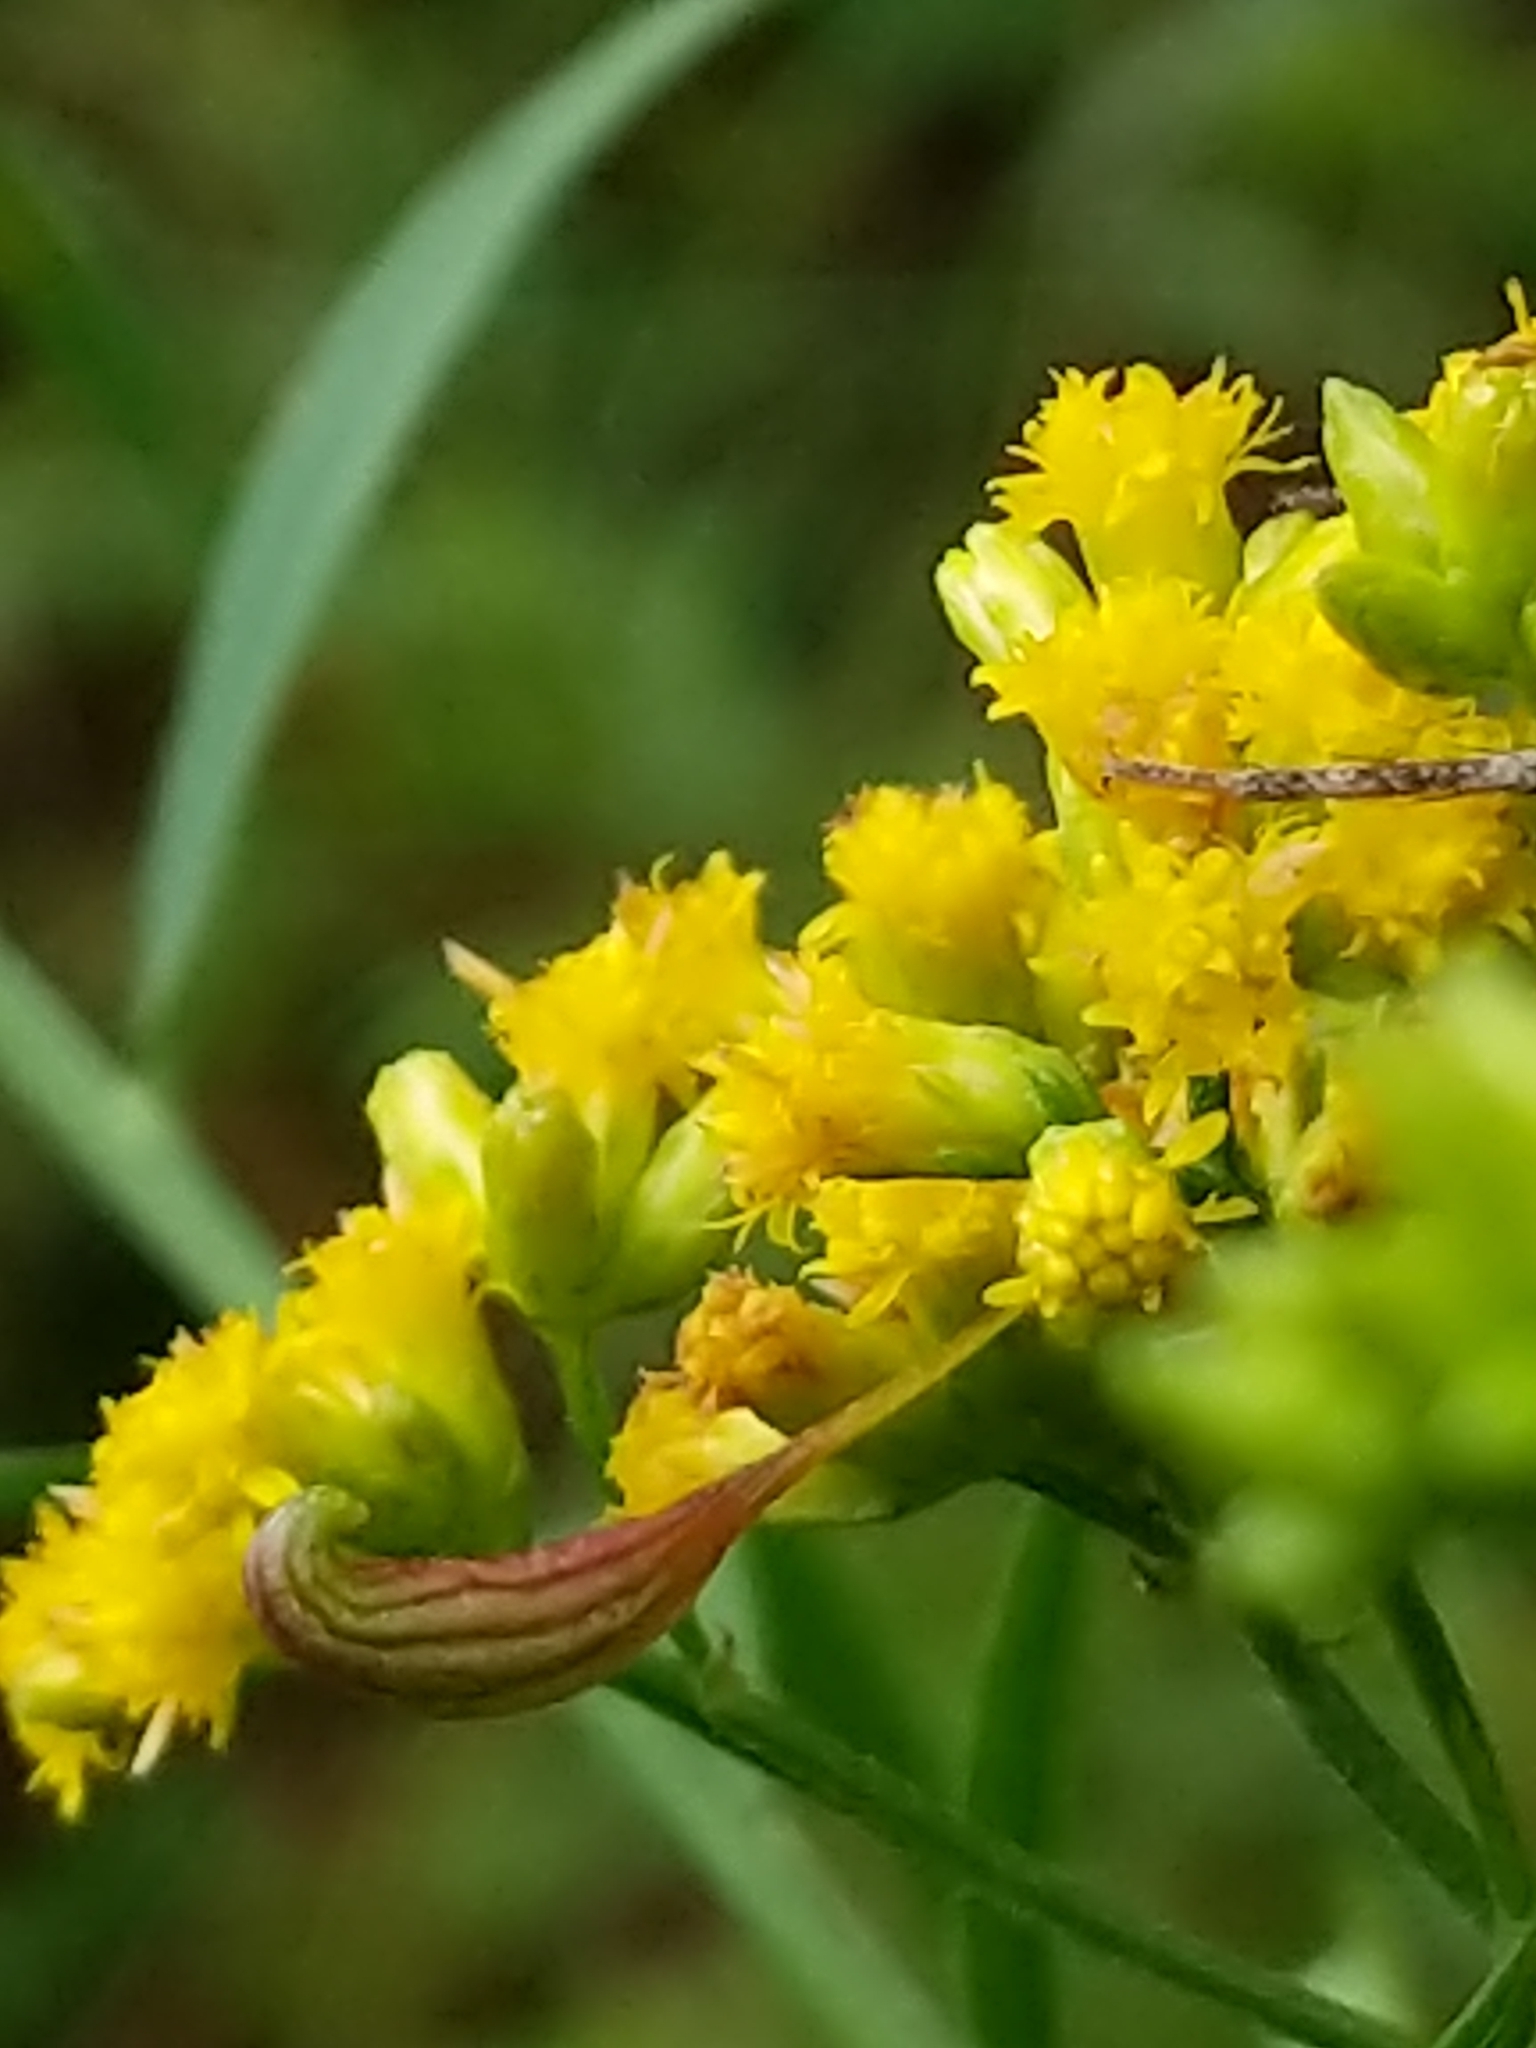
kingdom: Animalia
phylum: Arthropoda
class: Insecta
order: Diptera
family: Cecidomyiidae
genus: Rhopalomyia
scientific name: Rhopalomyia pedicellata
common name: Goldentop pedicellate gall midge
